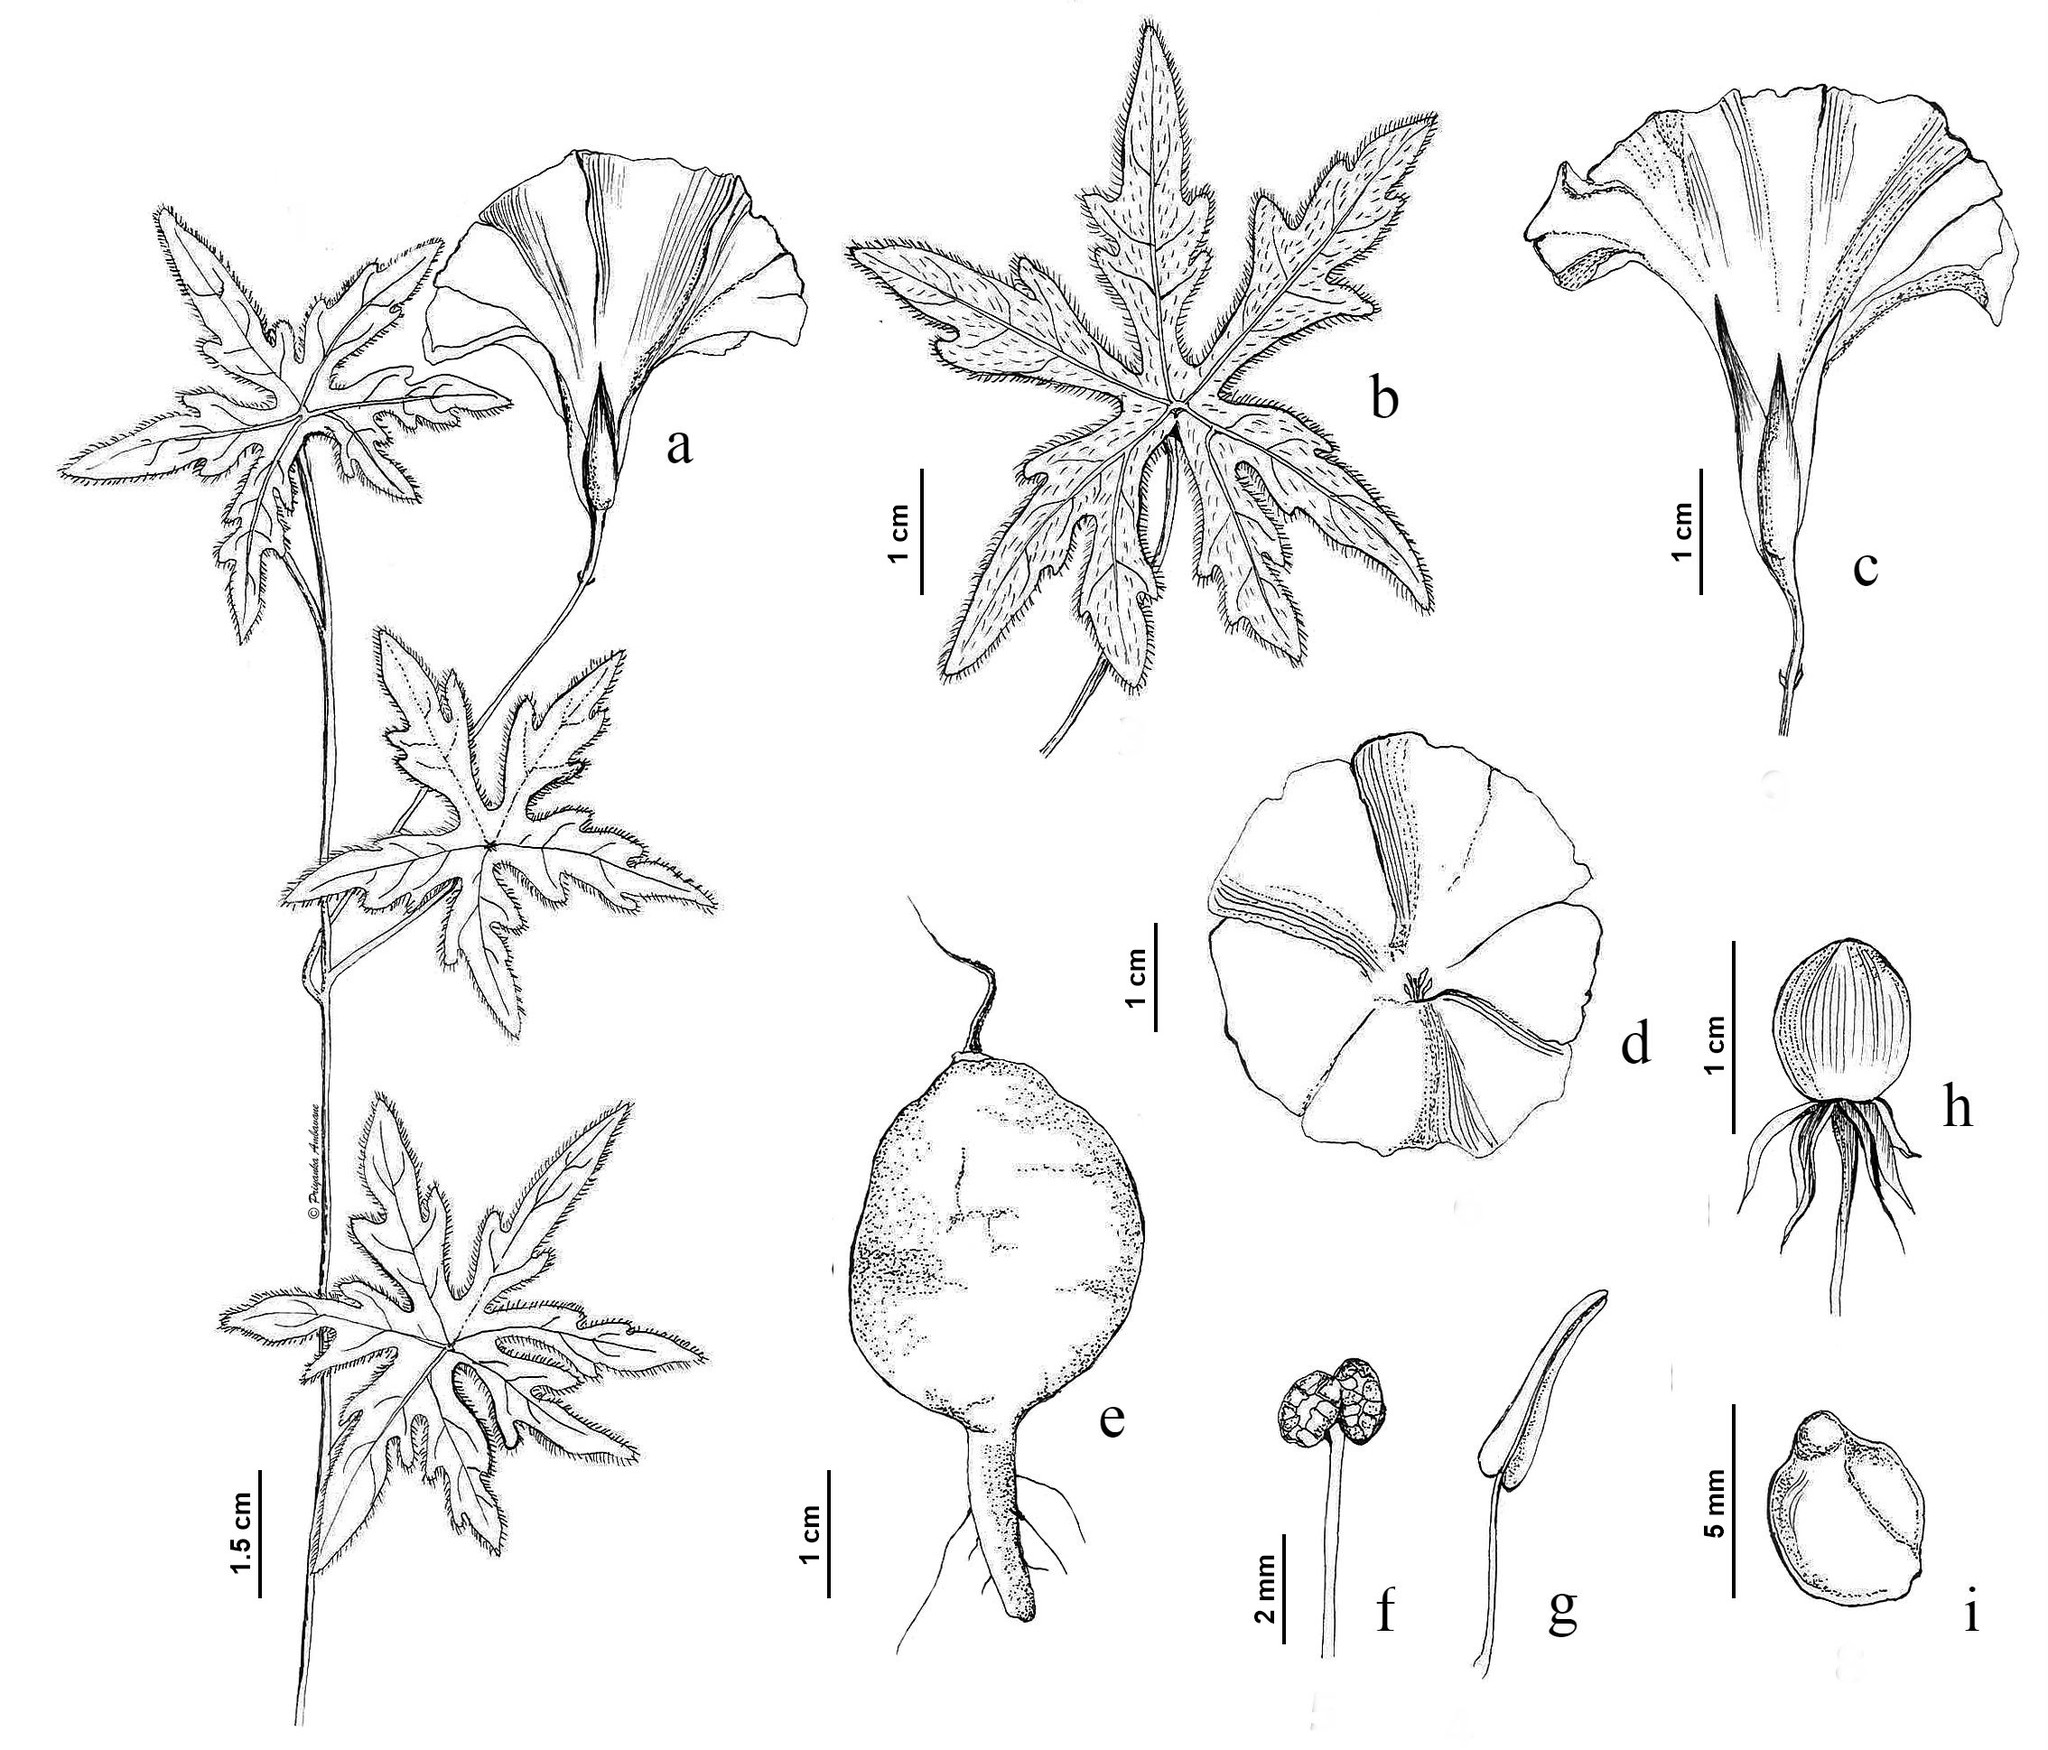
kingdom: Plantae
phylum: Tracheophyta
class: Magnoliopsida
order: Solanales
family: Convolvulaceae
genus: Distimake
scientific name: Distimake rhyncorhizus
